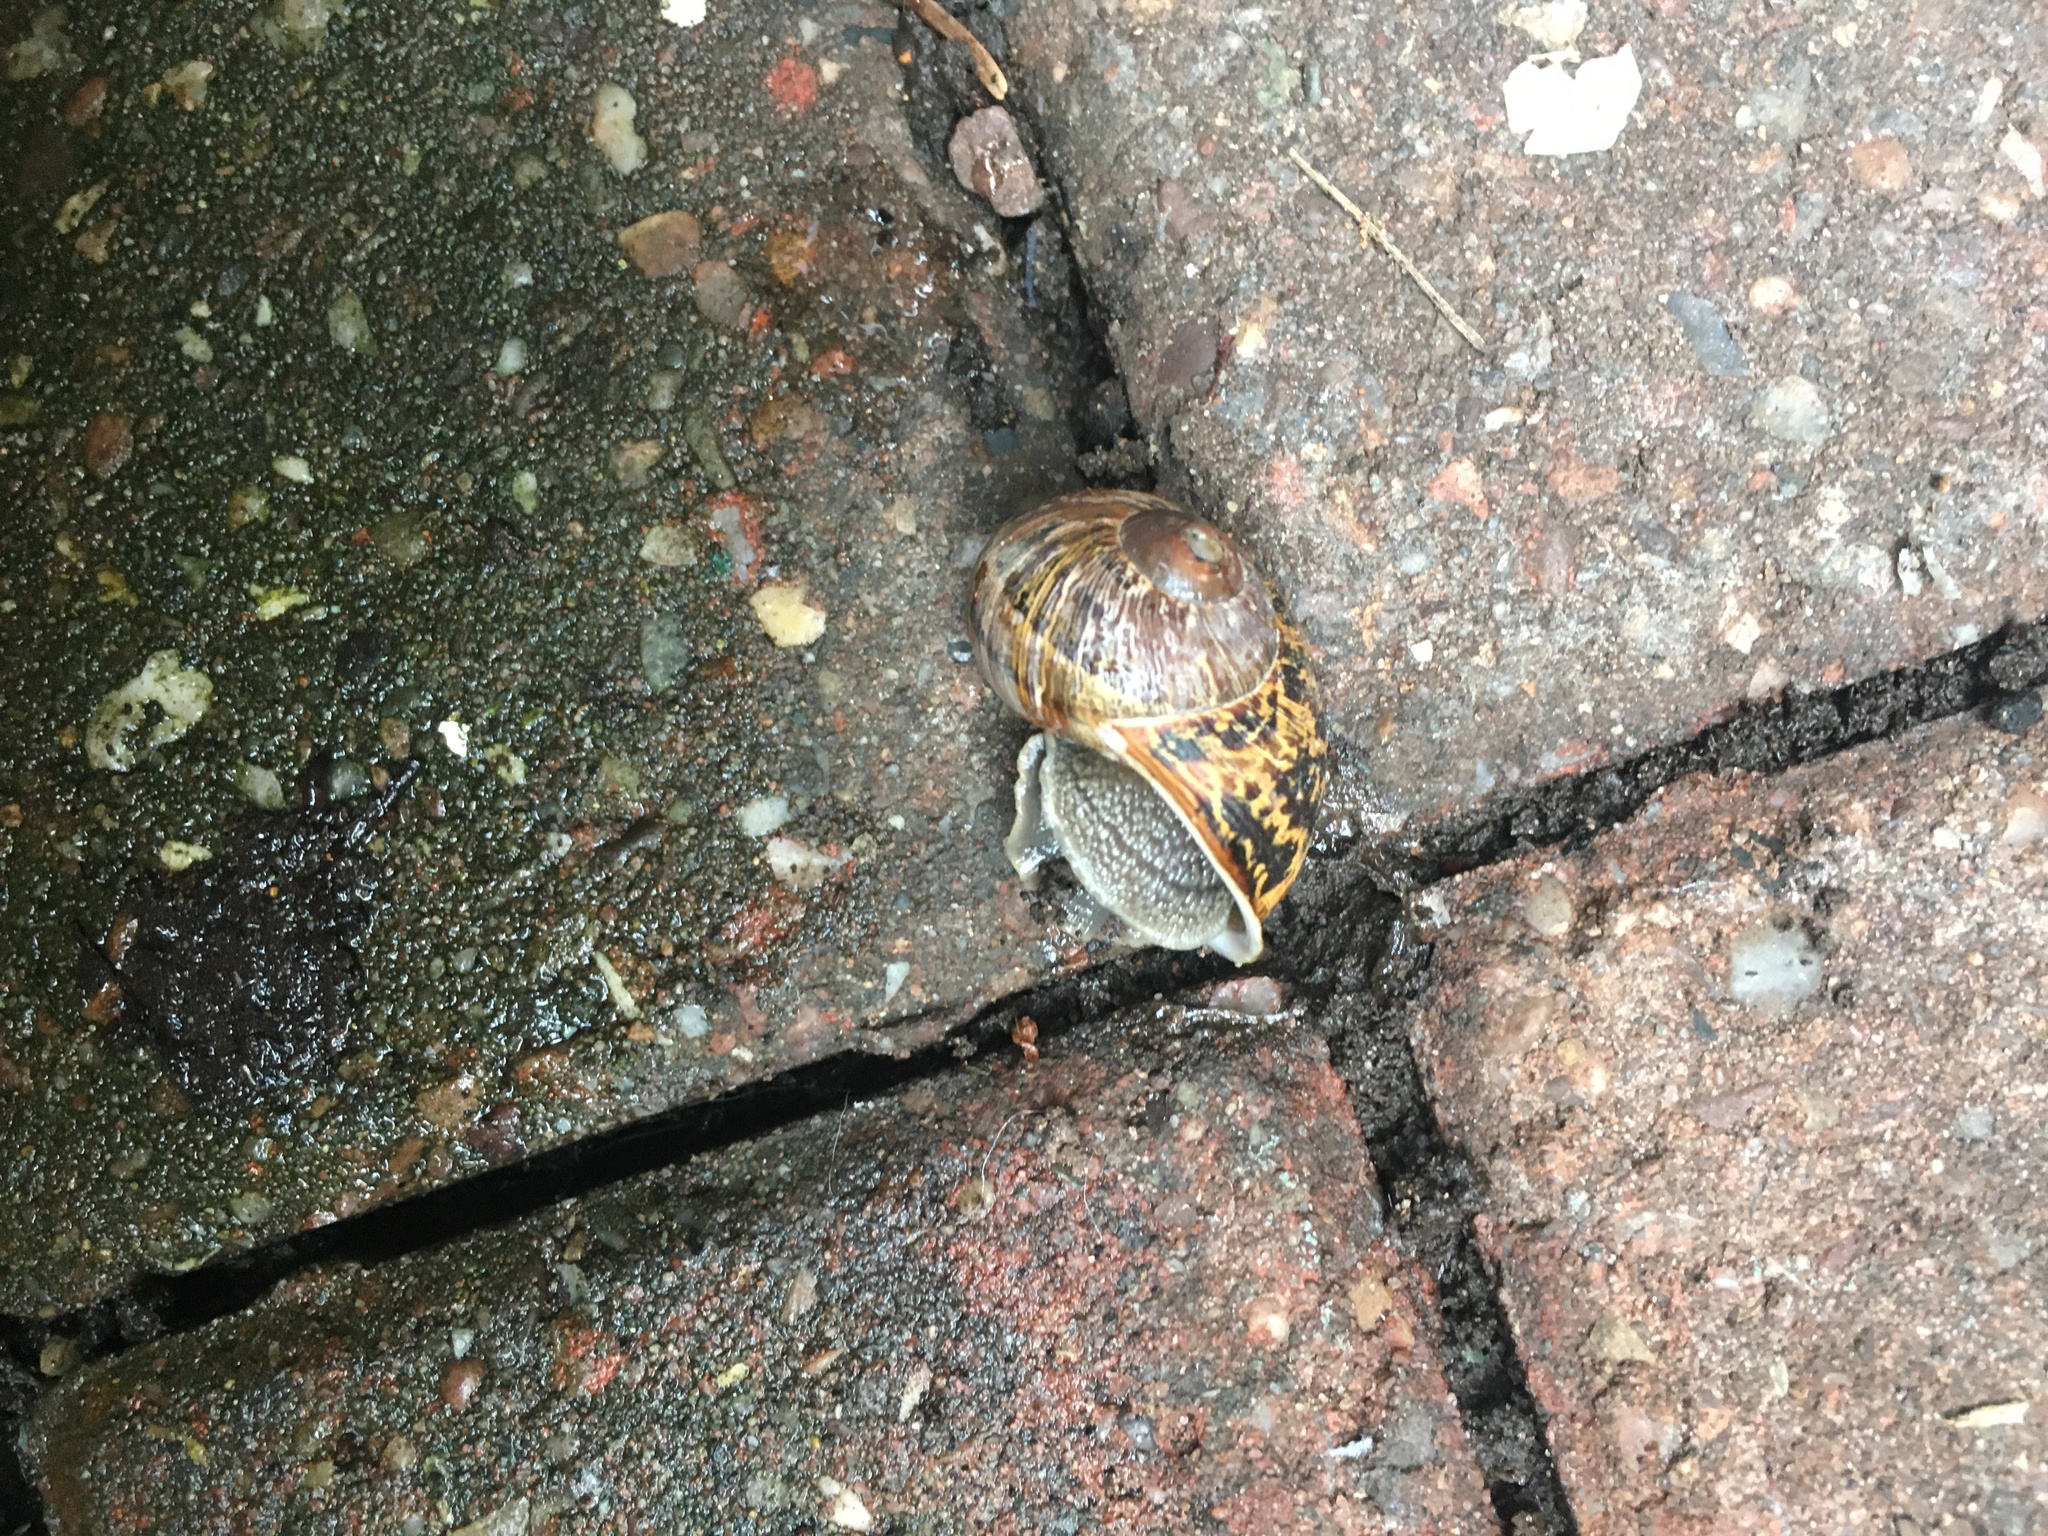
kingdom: Animalia
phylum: Mollusca
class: Gastropoda
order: Stylommatophora
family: Helicidae
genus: Cornu
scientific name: Cornu aspersum
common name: Brown garden snail
